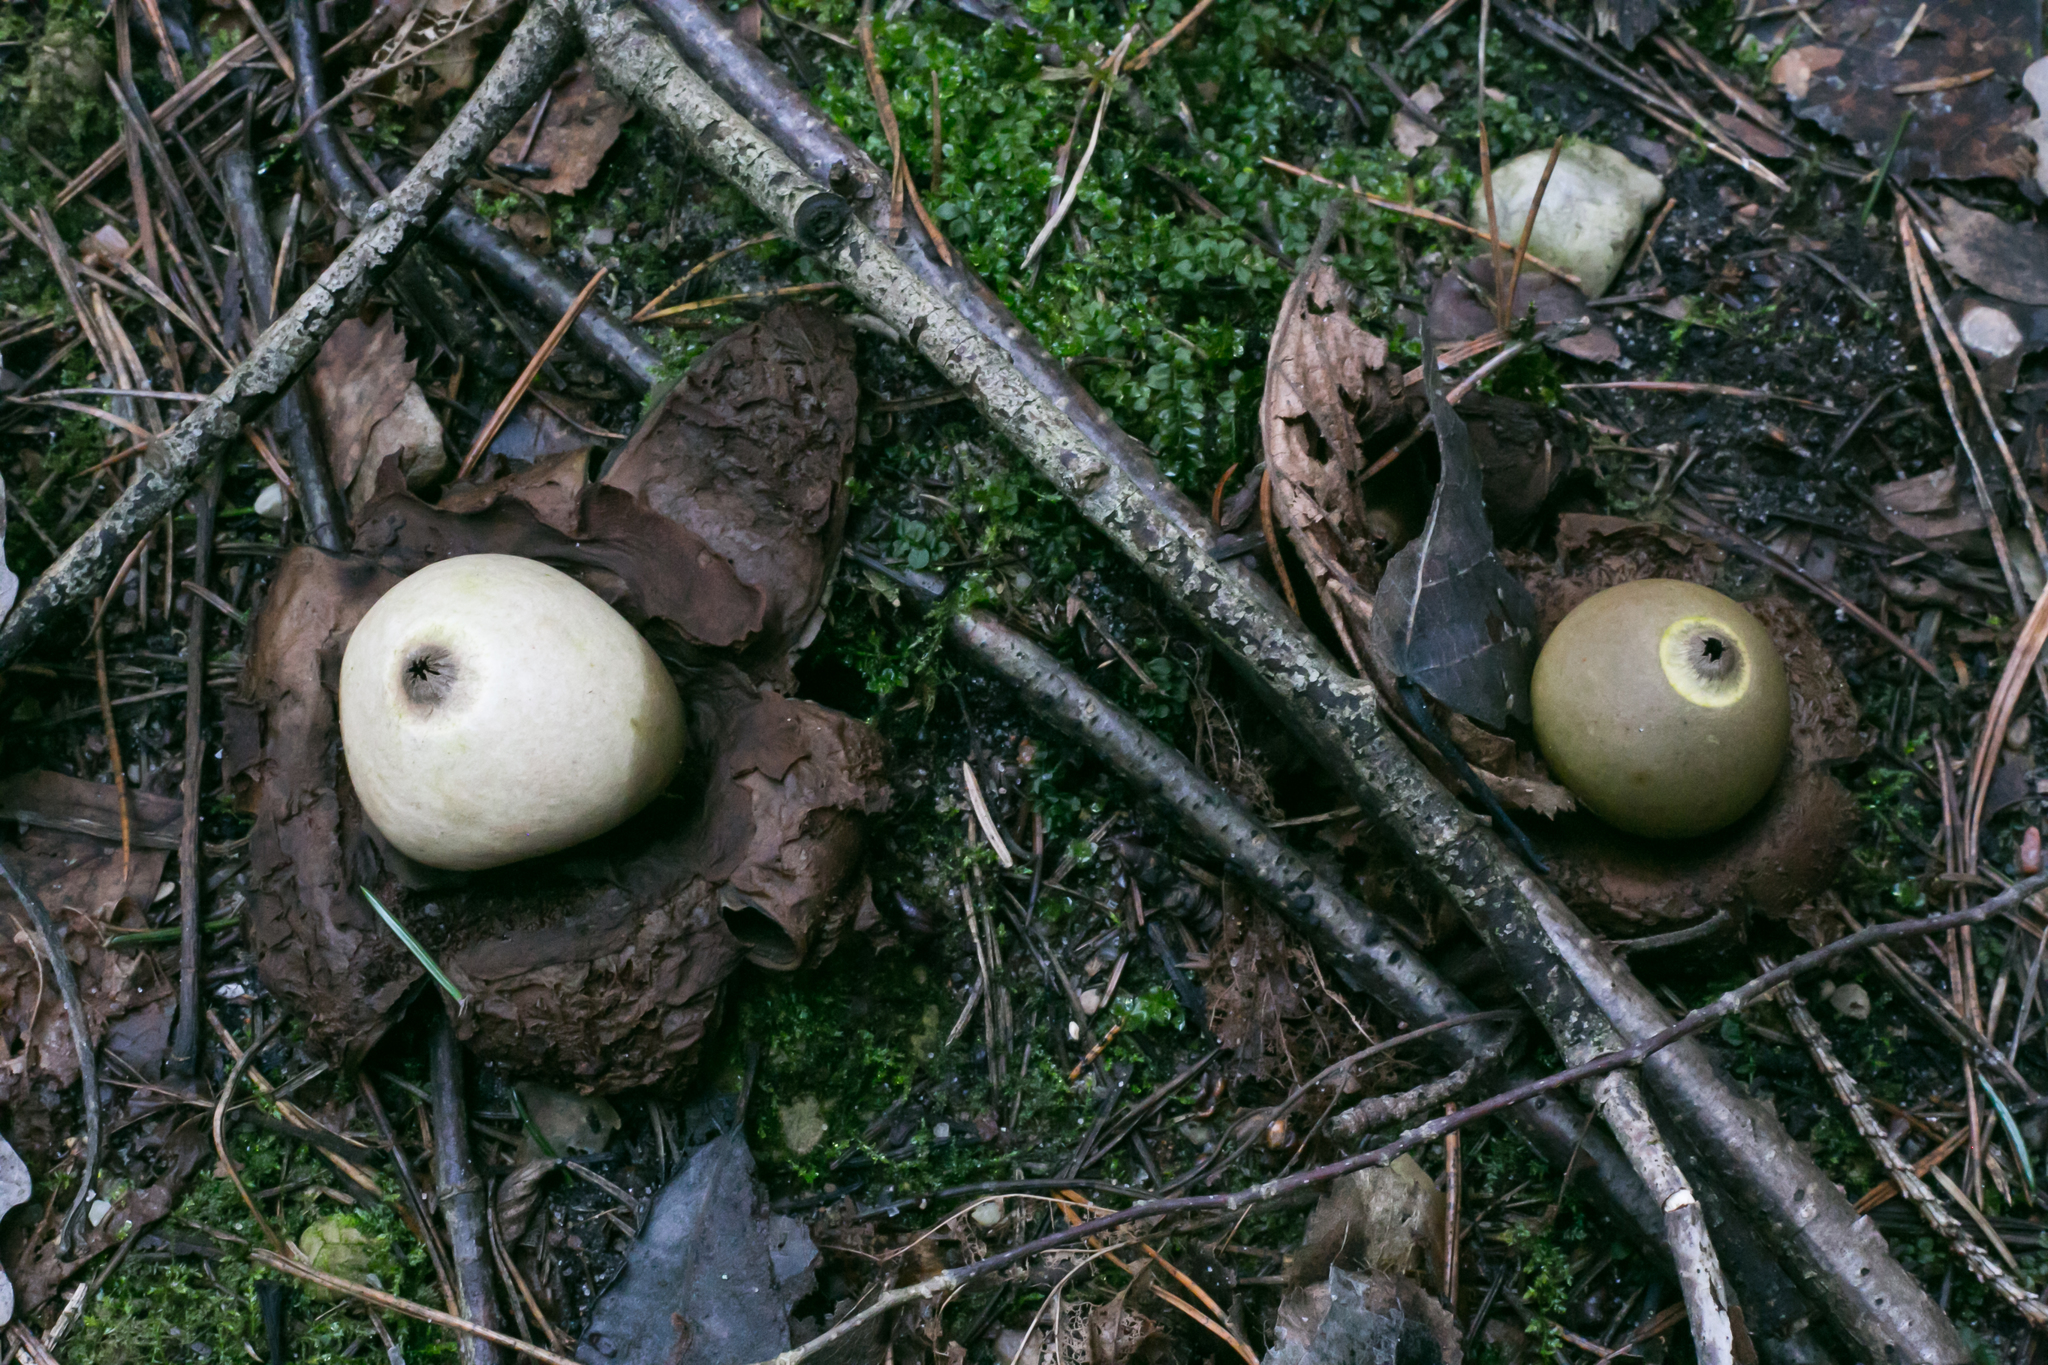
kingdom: Fungi
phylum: Basidiomycota
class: Agaricomycetes
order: Geastrales
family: Geastraceae
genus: Geastrum
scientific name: Geastrum triplex
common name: Collared earthstar
